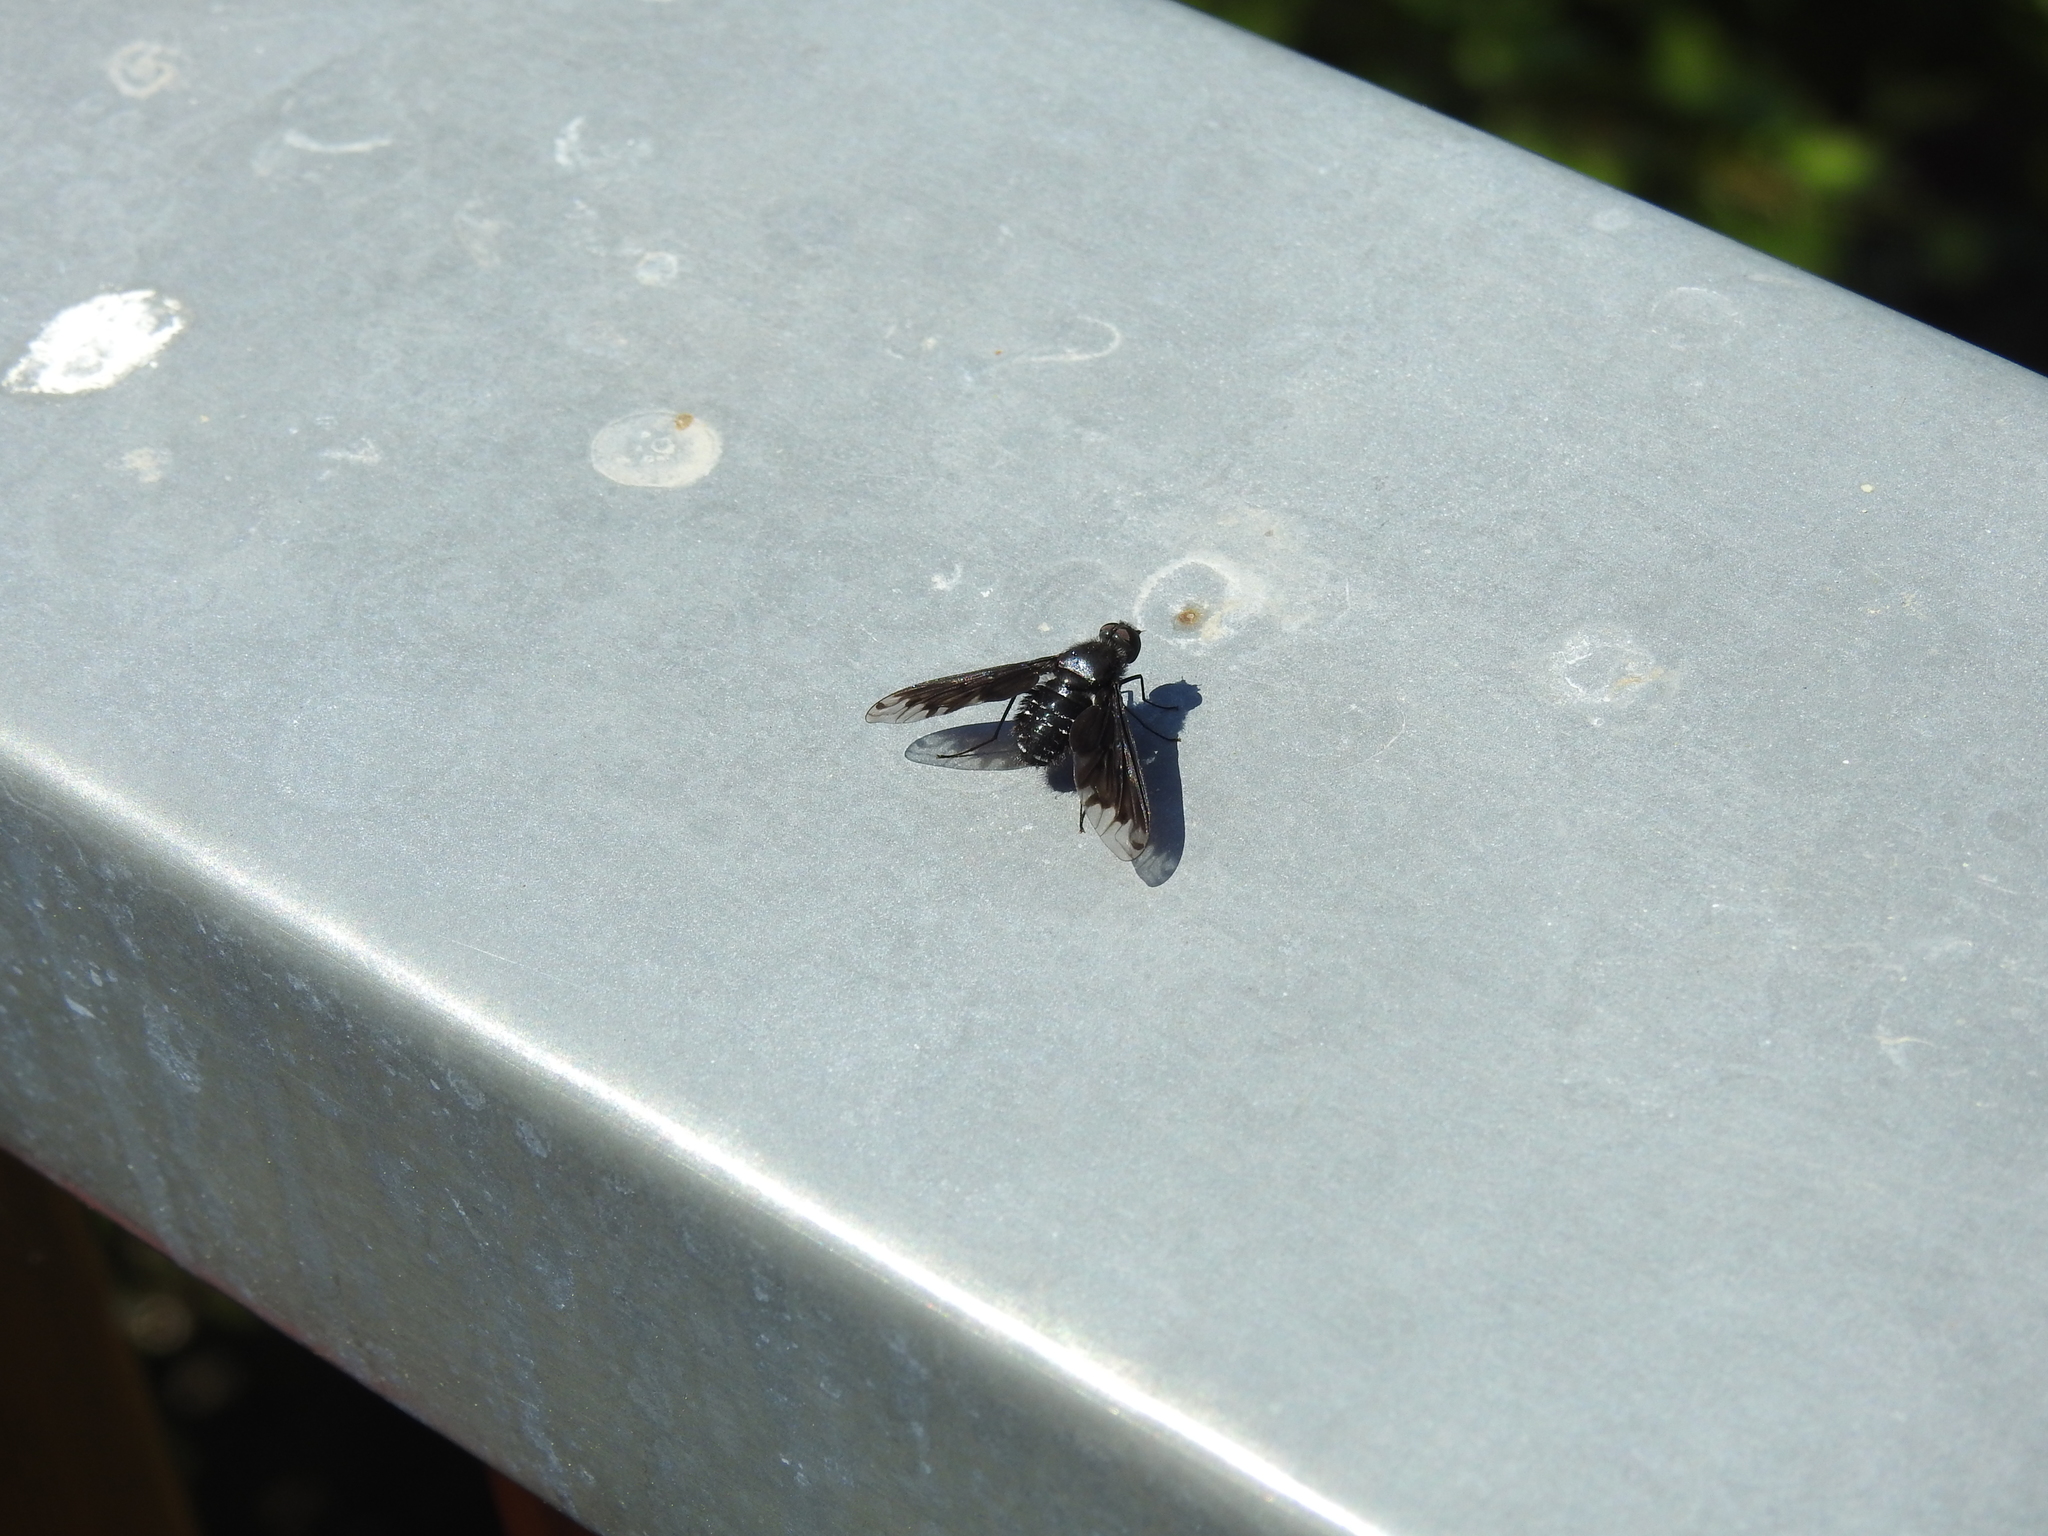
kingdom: Animalia
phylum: Arthropoda
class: Insecta
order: Diptera
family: Bombyliidae
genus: Anthrax
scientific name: Anthrax anthrax
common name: Anthracite bee-fly
